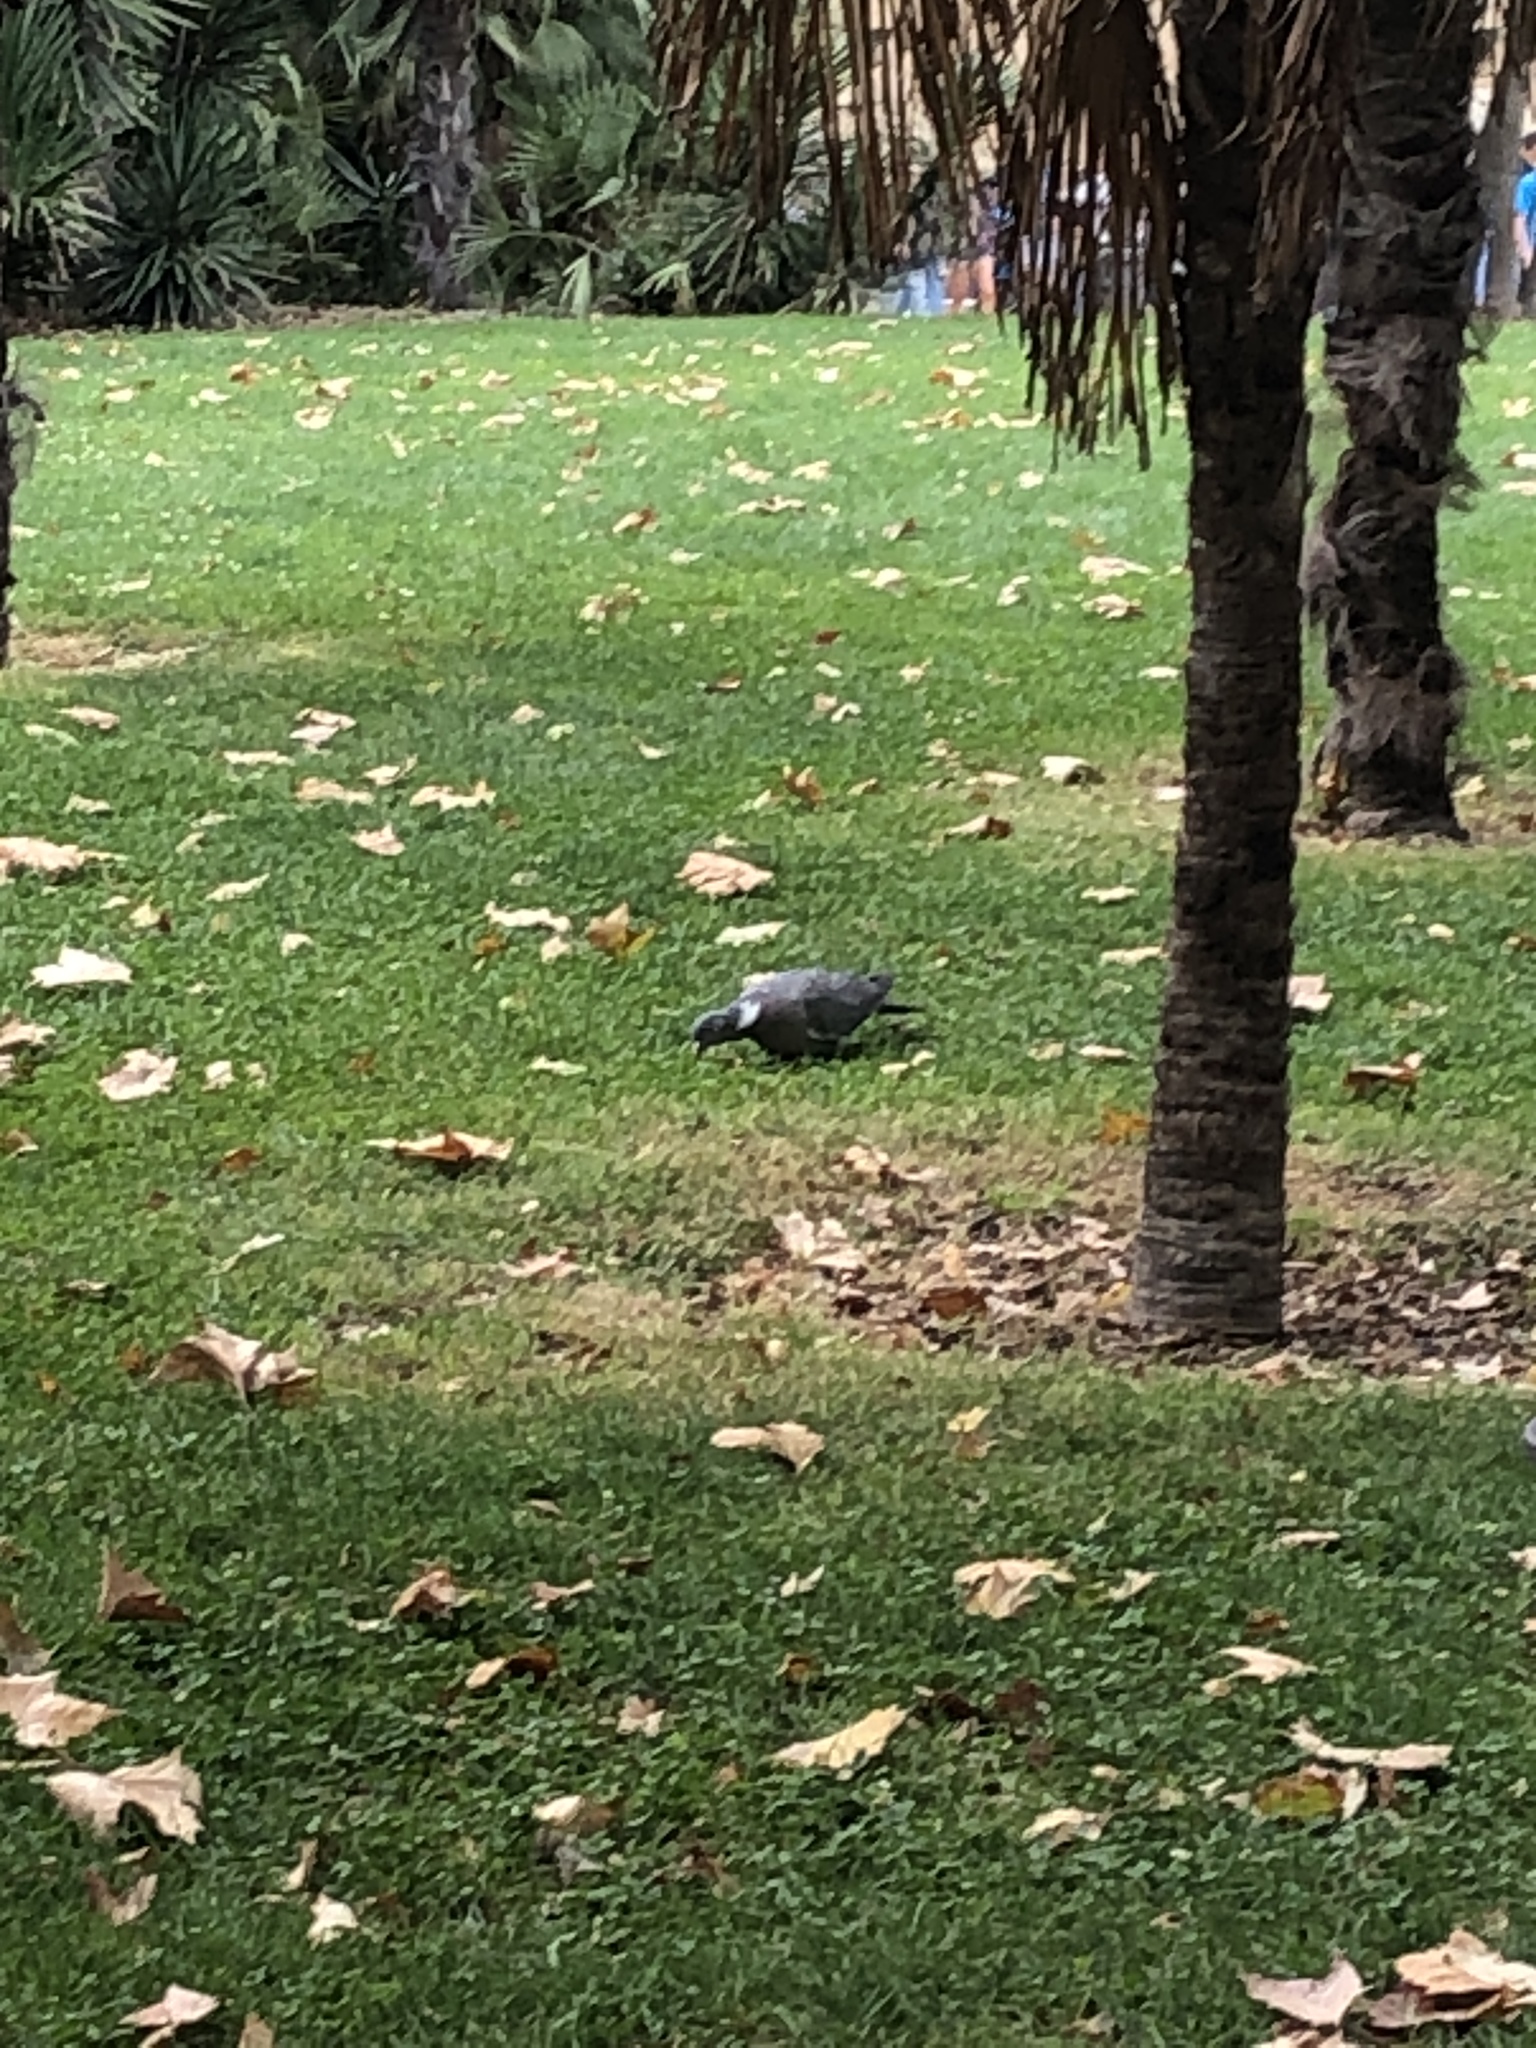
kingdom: Animalia
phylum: Chordata
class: Aves
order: Columbiformes
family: Columbidae
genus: Columba
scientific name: Columba palumbus
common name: Common wood pigeon
